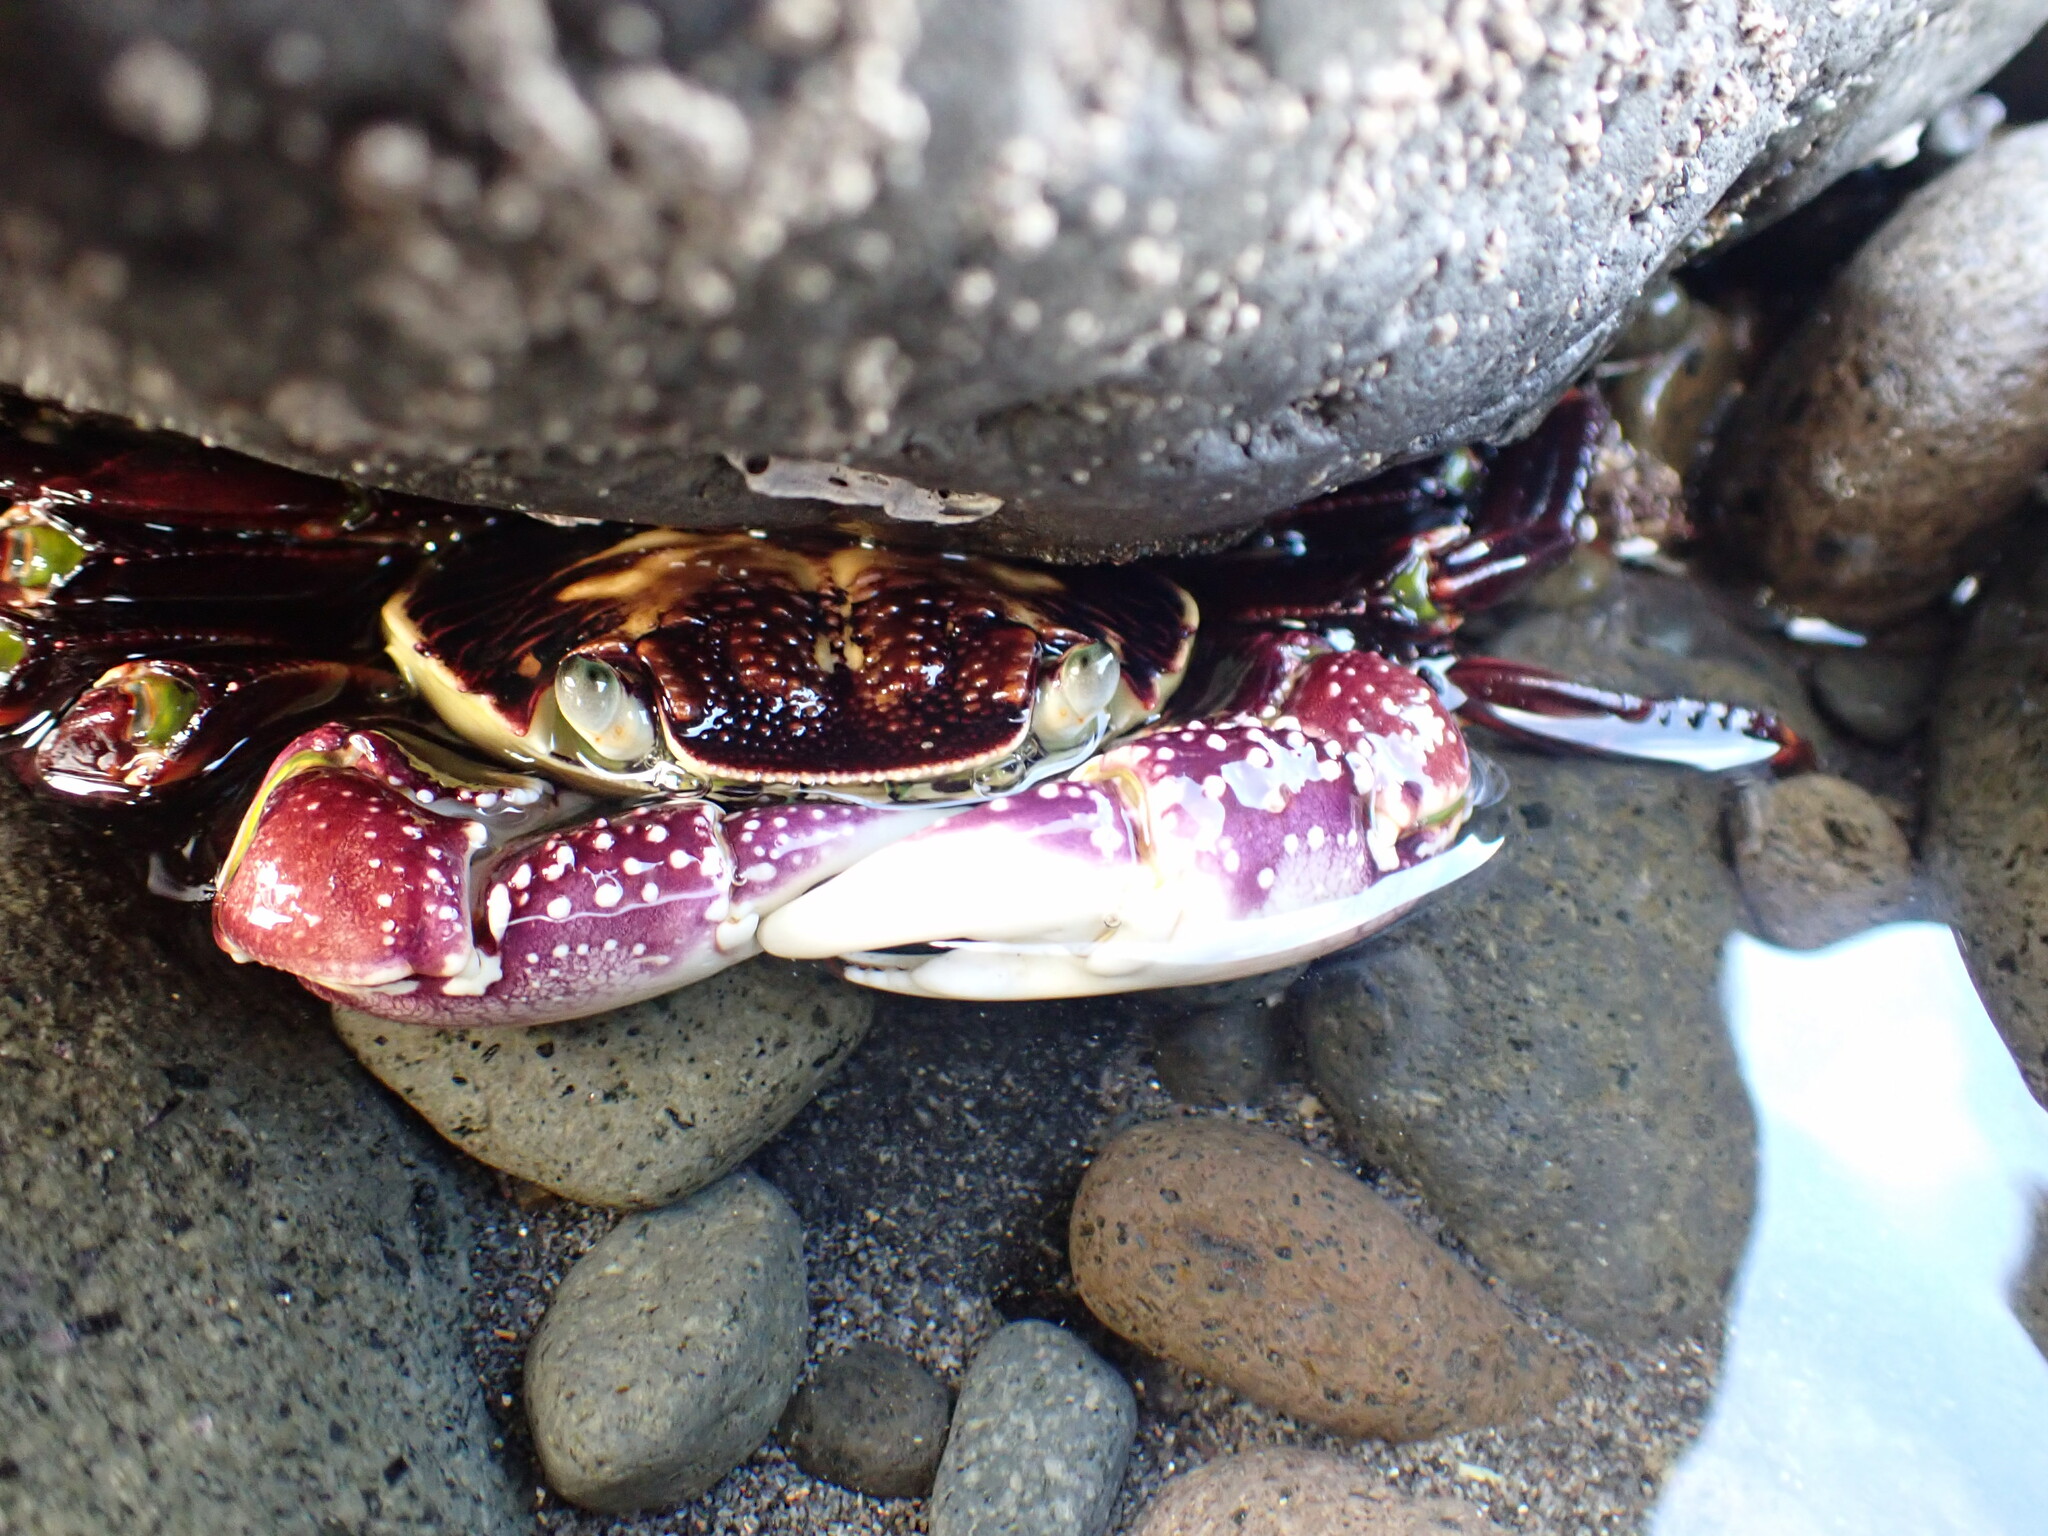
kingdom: Animalia
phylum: Arthropoda
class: Malacostraca
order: Decapoda
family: Grapsidae
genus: Leptograpsus
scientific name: Leptograpsus variegatus
